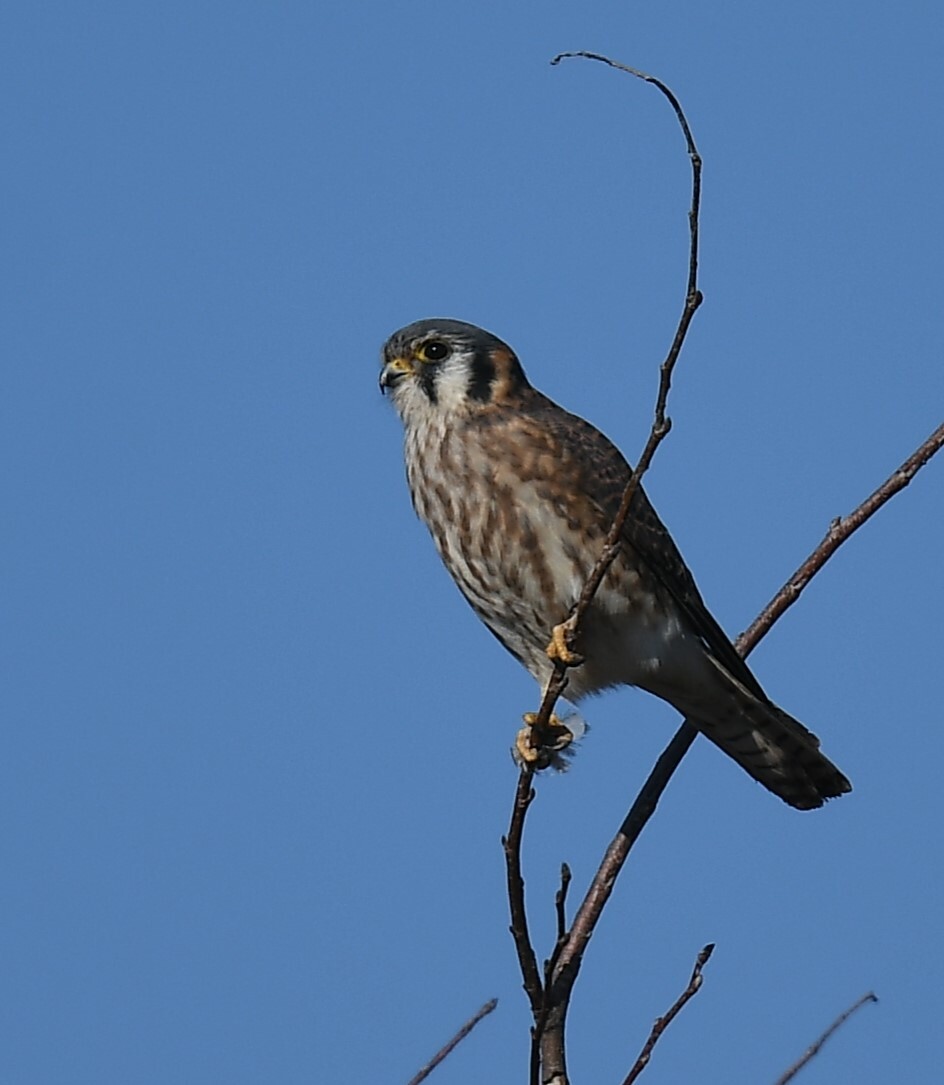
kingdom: Animalia
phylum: Chordata
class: Aves
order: Falconiformes
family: Falconidae
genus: Falco
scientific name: Falco sparverius
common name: American kestrel
